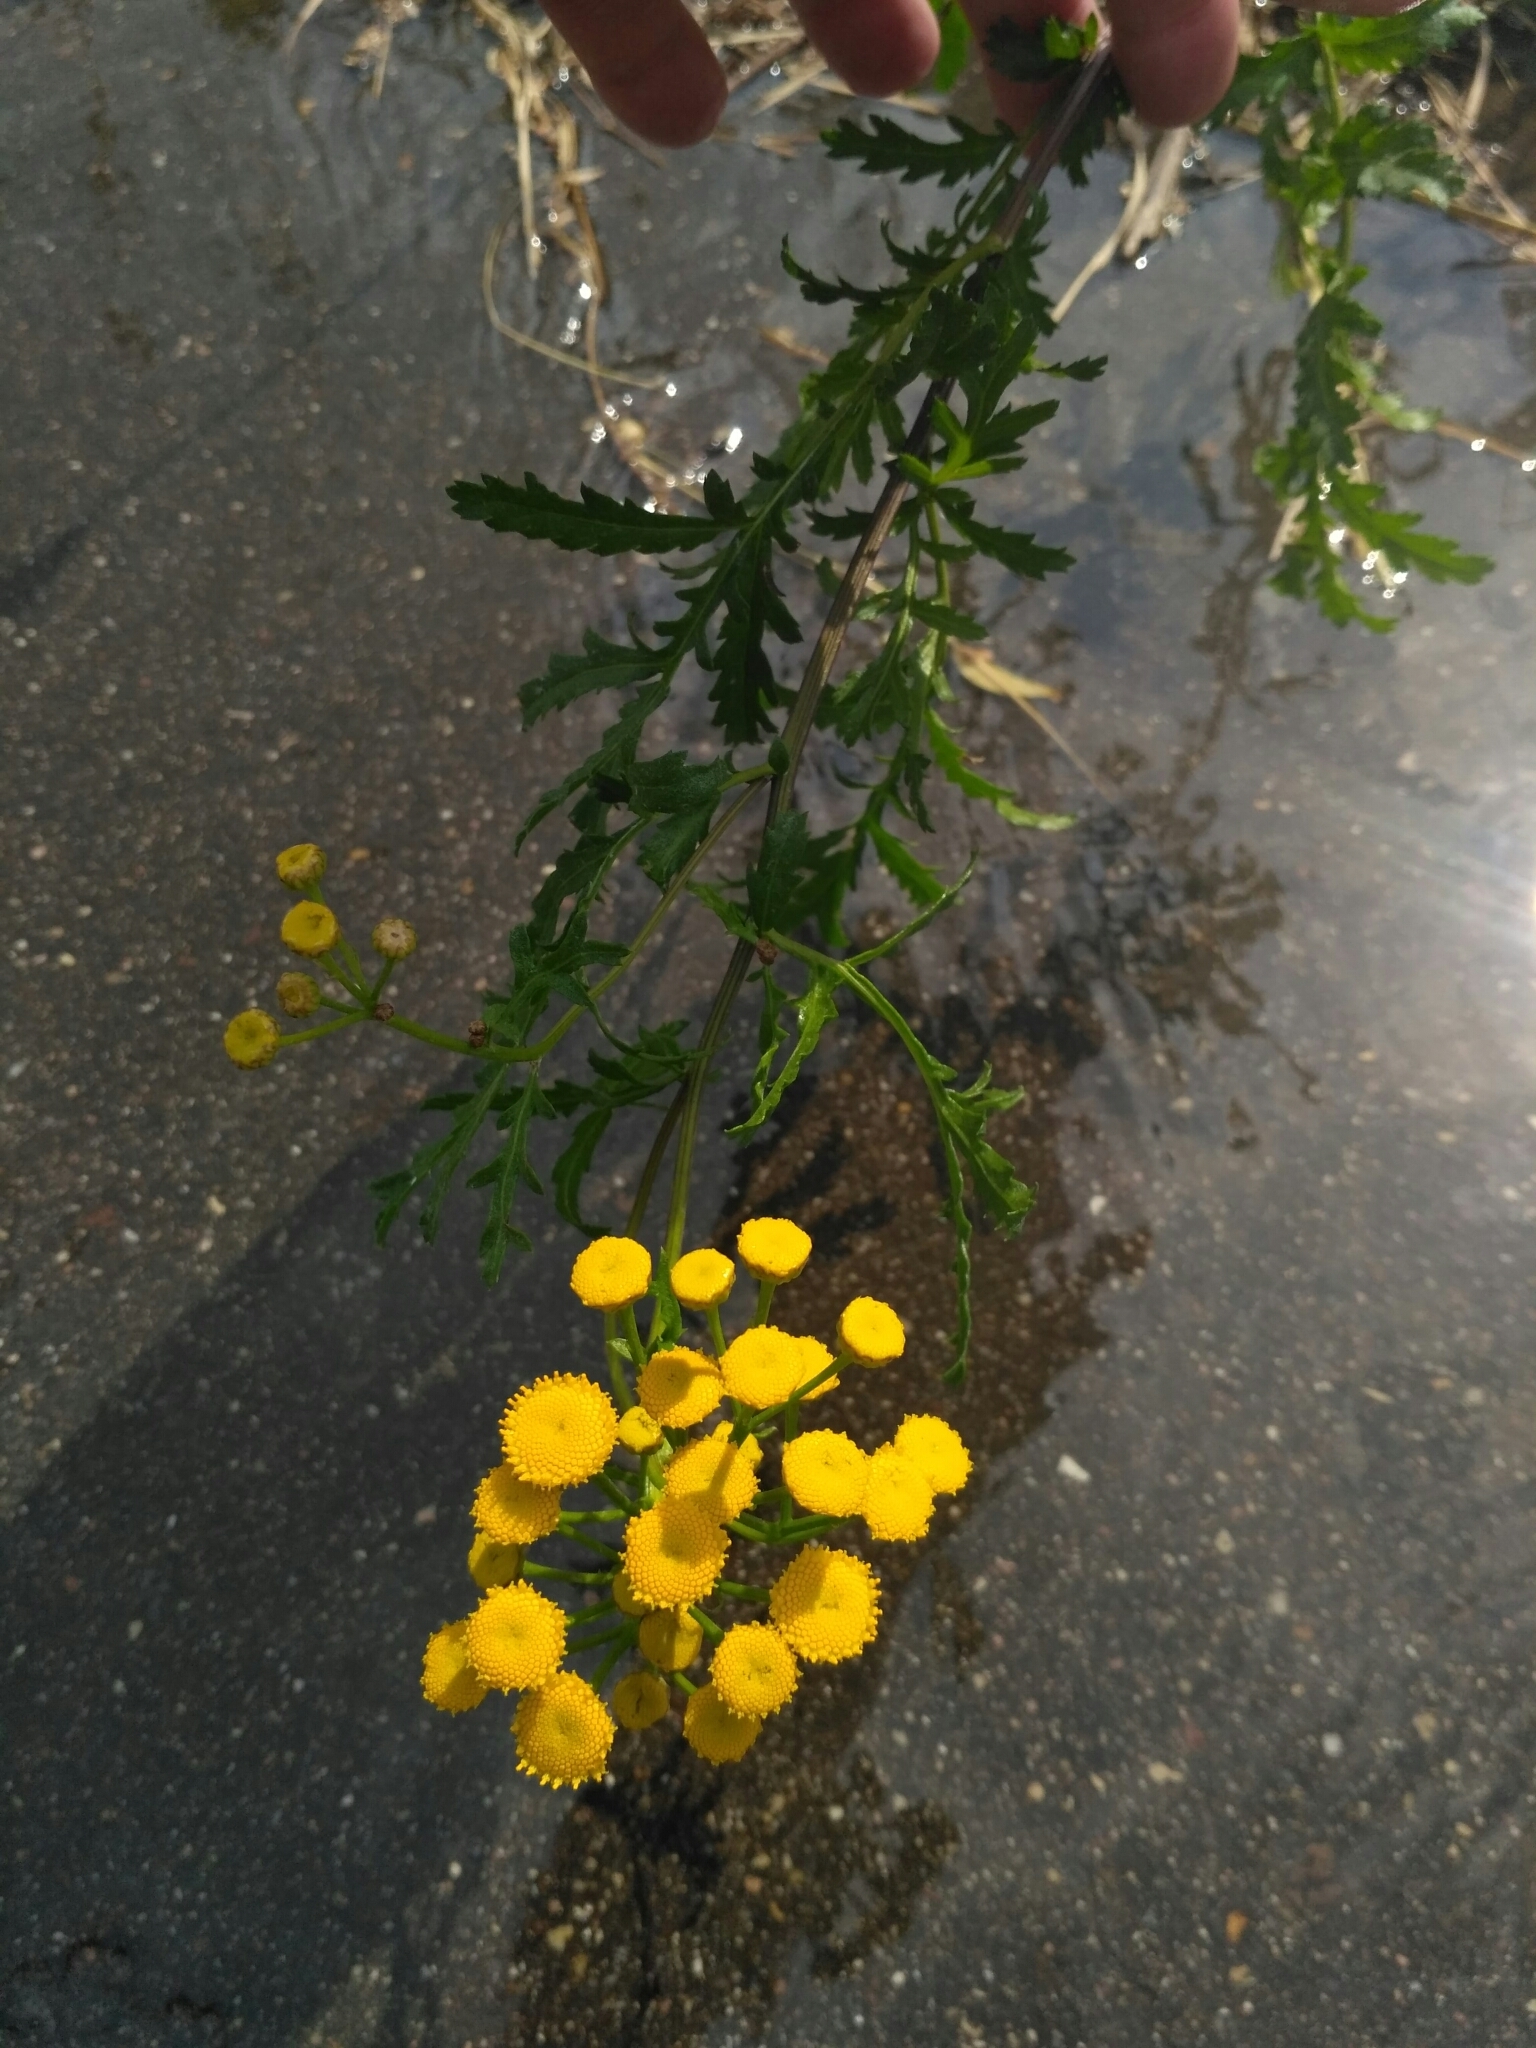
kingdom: Plantae
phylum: Tracheophyta
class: Magnoliopsida
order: Asterales
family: Asteraceae
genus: Tanacetum
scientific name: Tanacetum vulgare
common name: Common tansy
